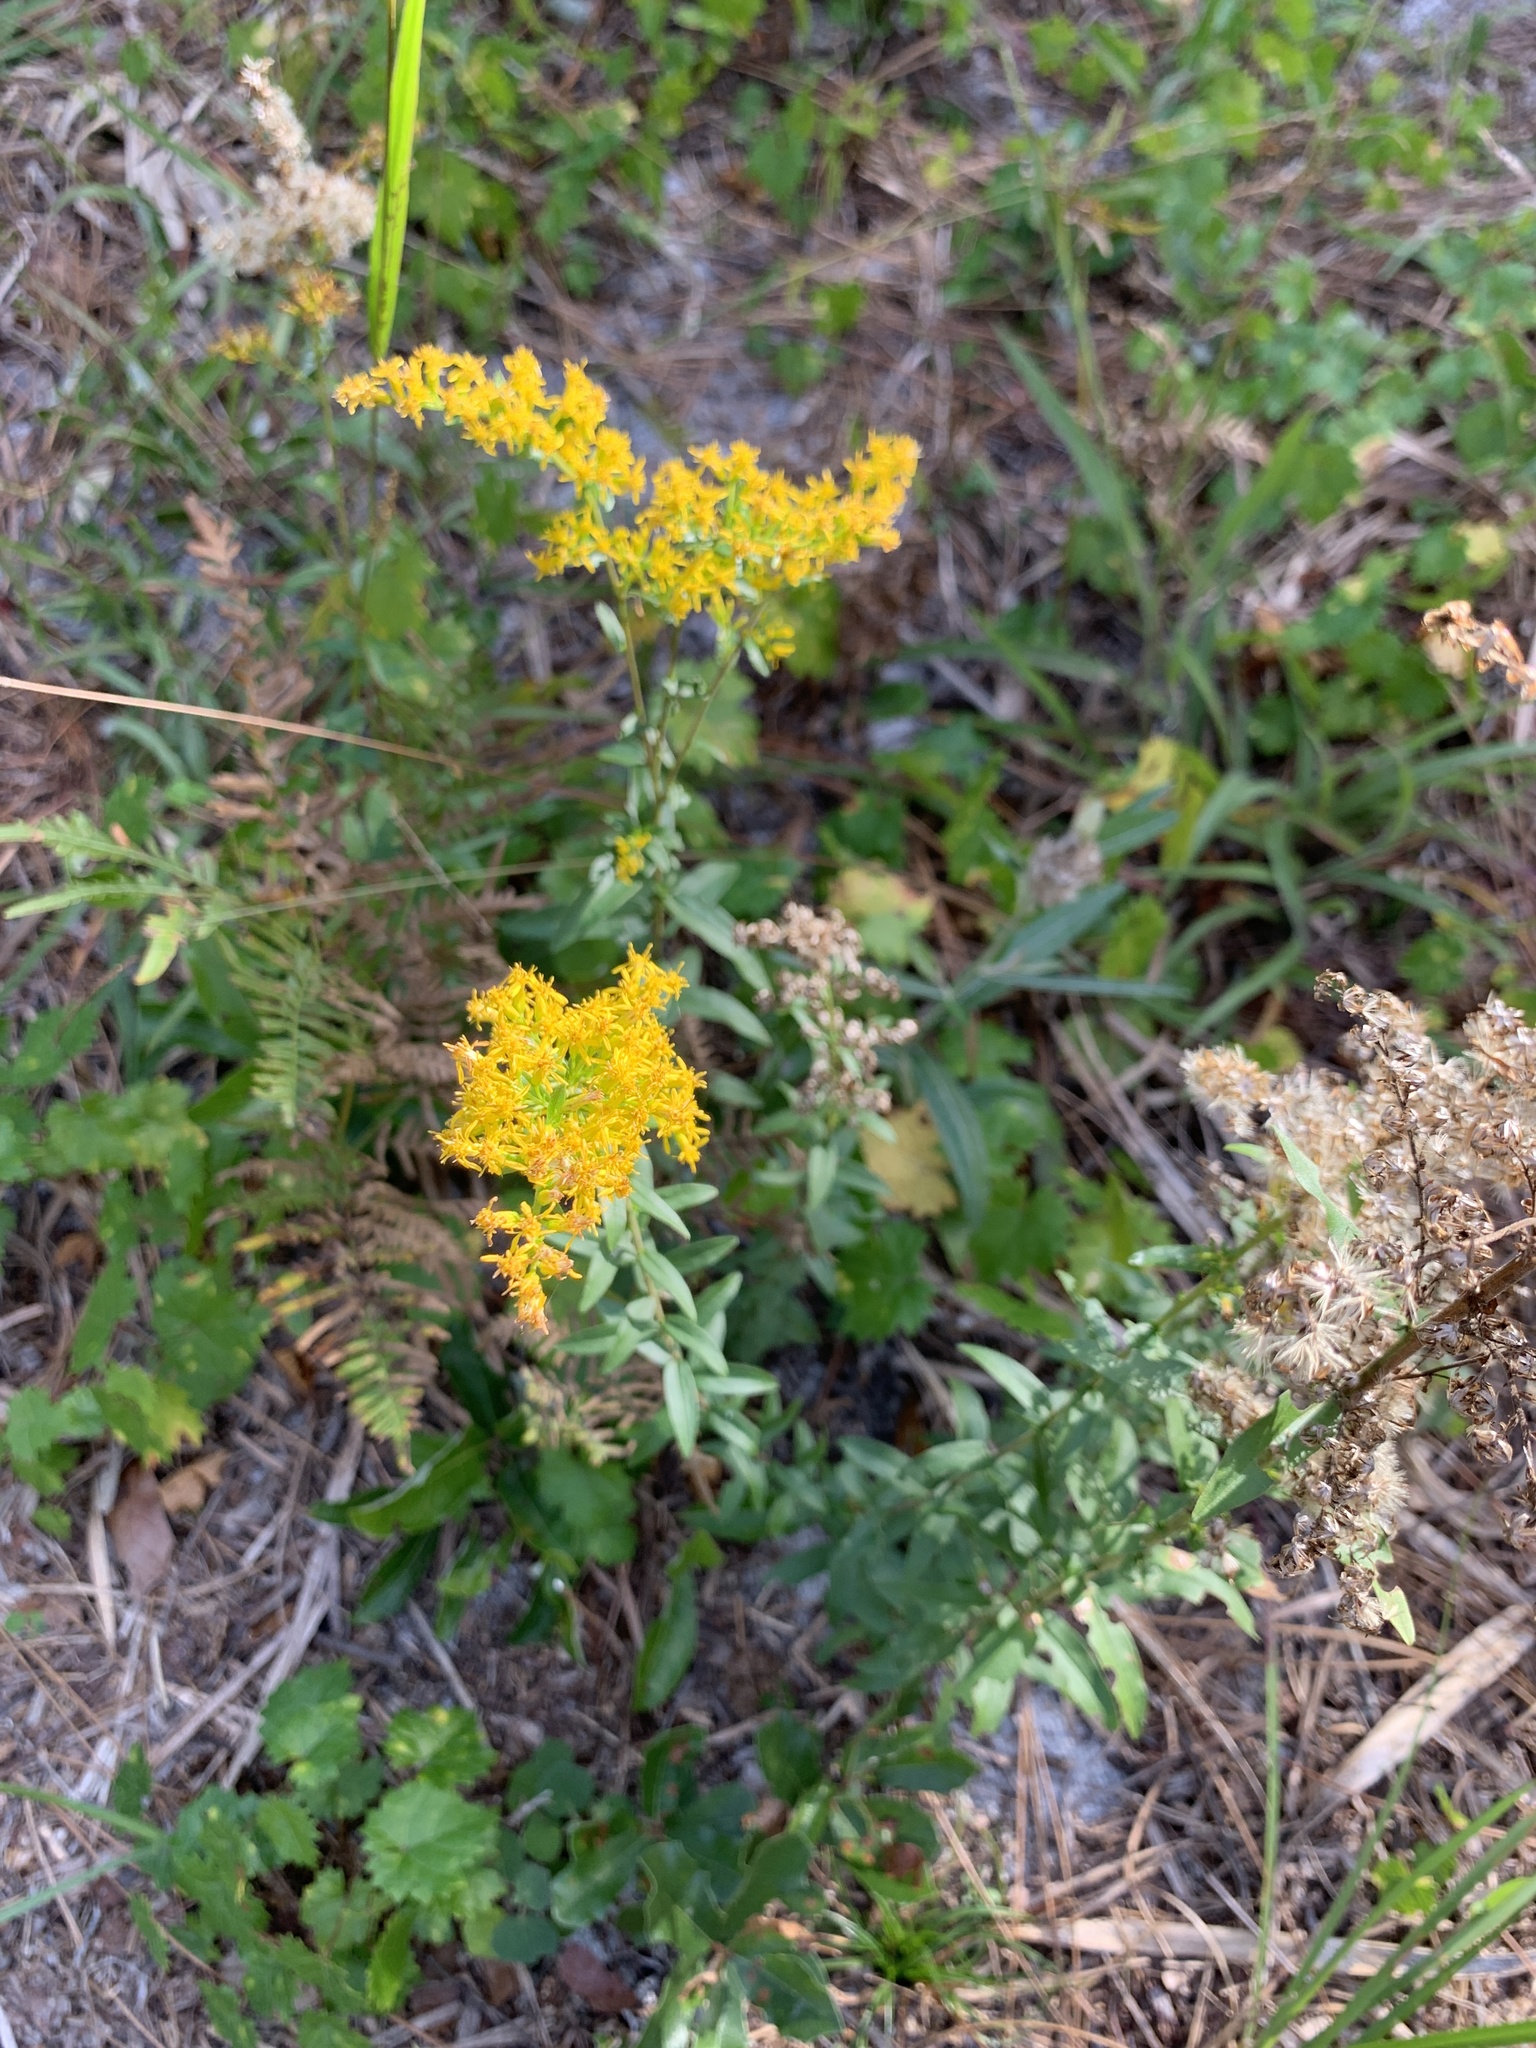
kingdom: Plantae
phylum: Tracheophyta
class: Magnoliopsida
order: Asterales
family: Asteraceae
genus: Solidago
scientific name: Solidago chapmanii
